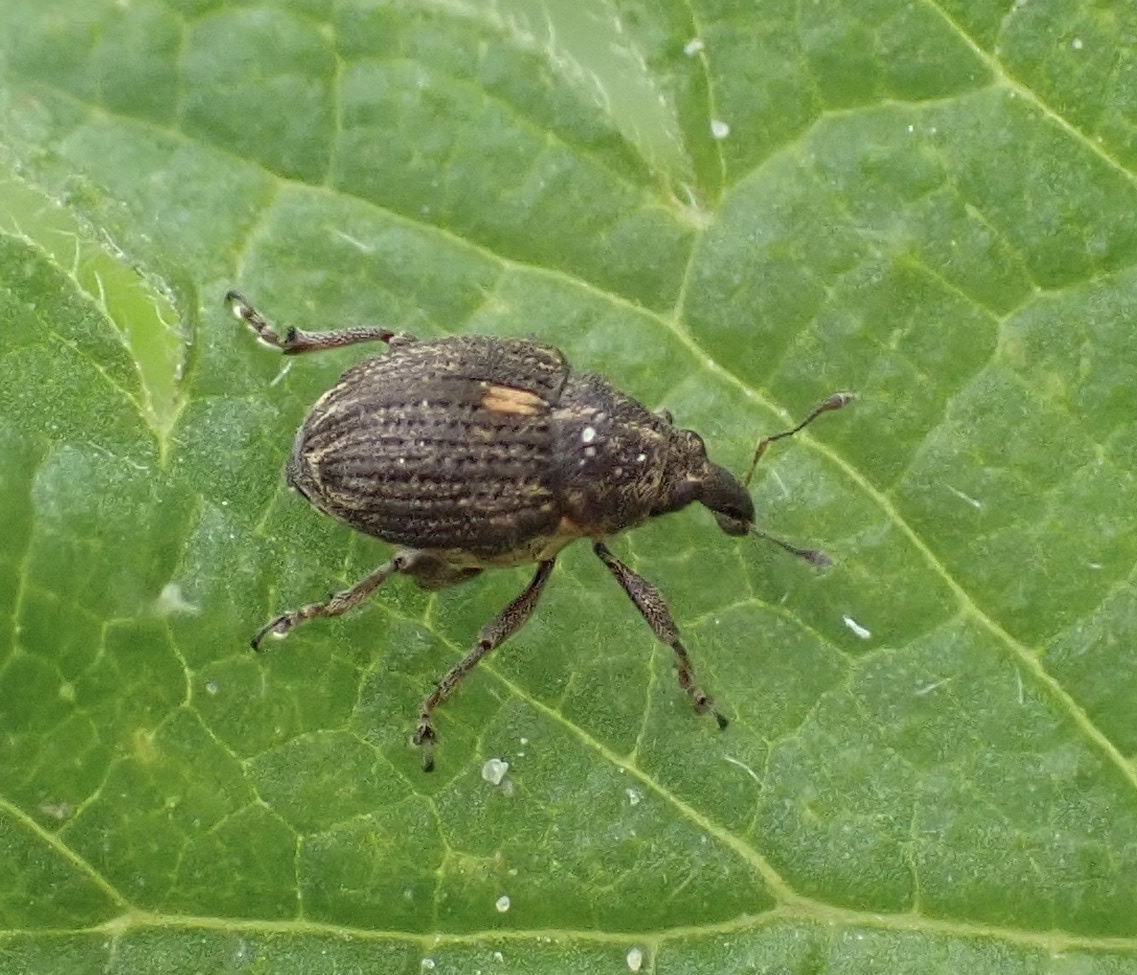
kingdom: Animalia
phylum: Arthropoda
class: Insecta
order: Coleoptera
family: Curculionidae
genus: Rhinoncus
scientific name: Rhinoncus leucostigma
